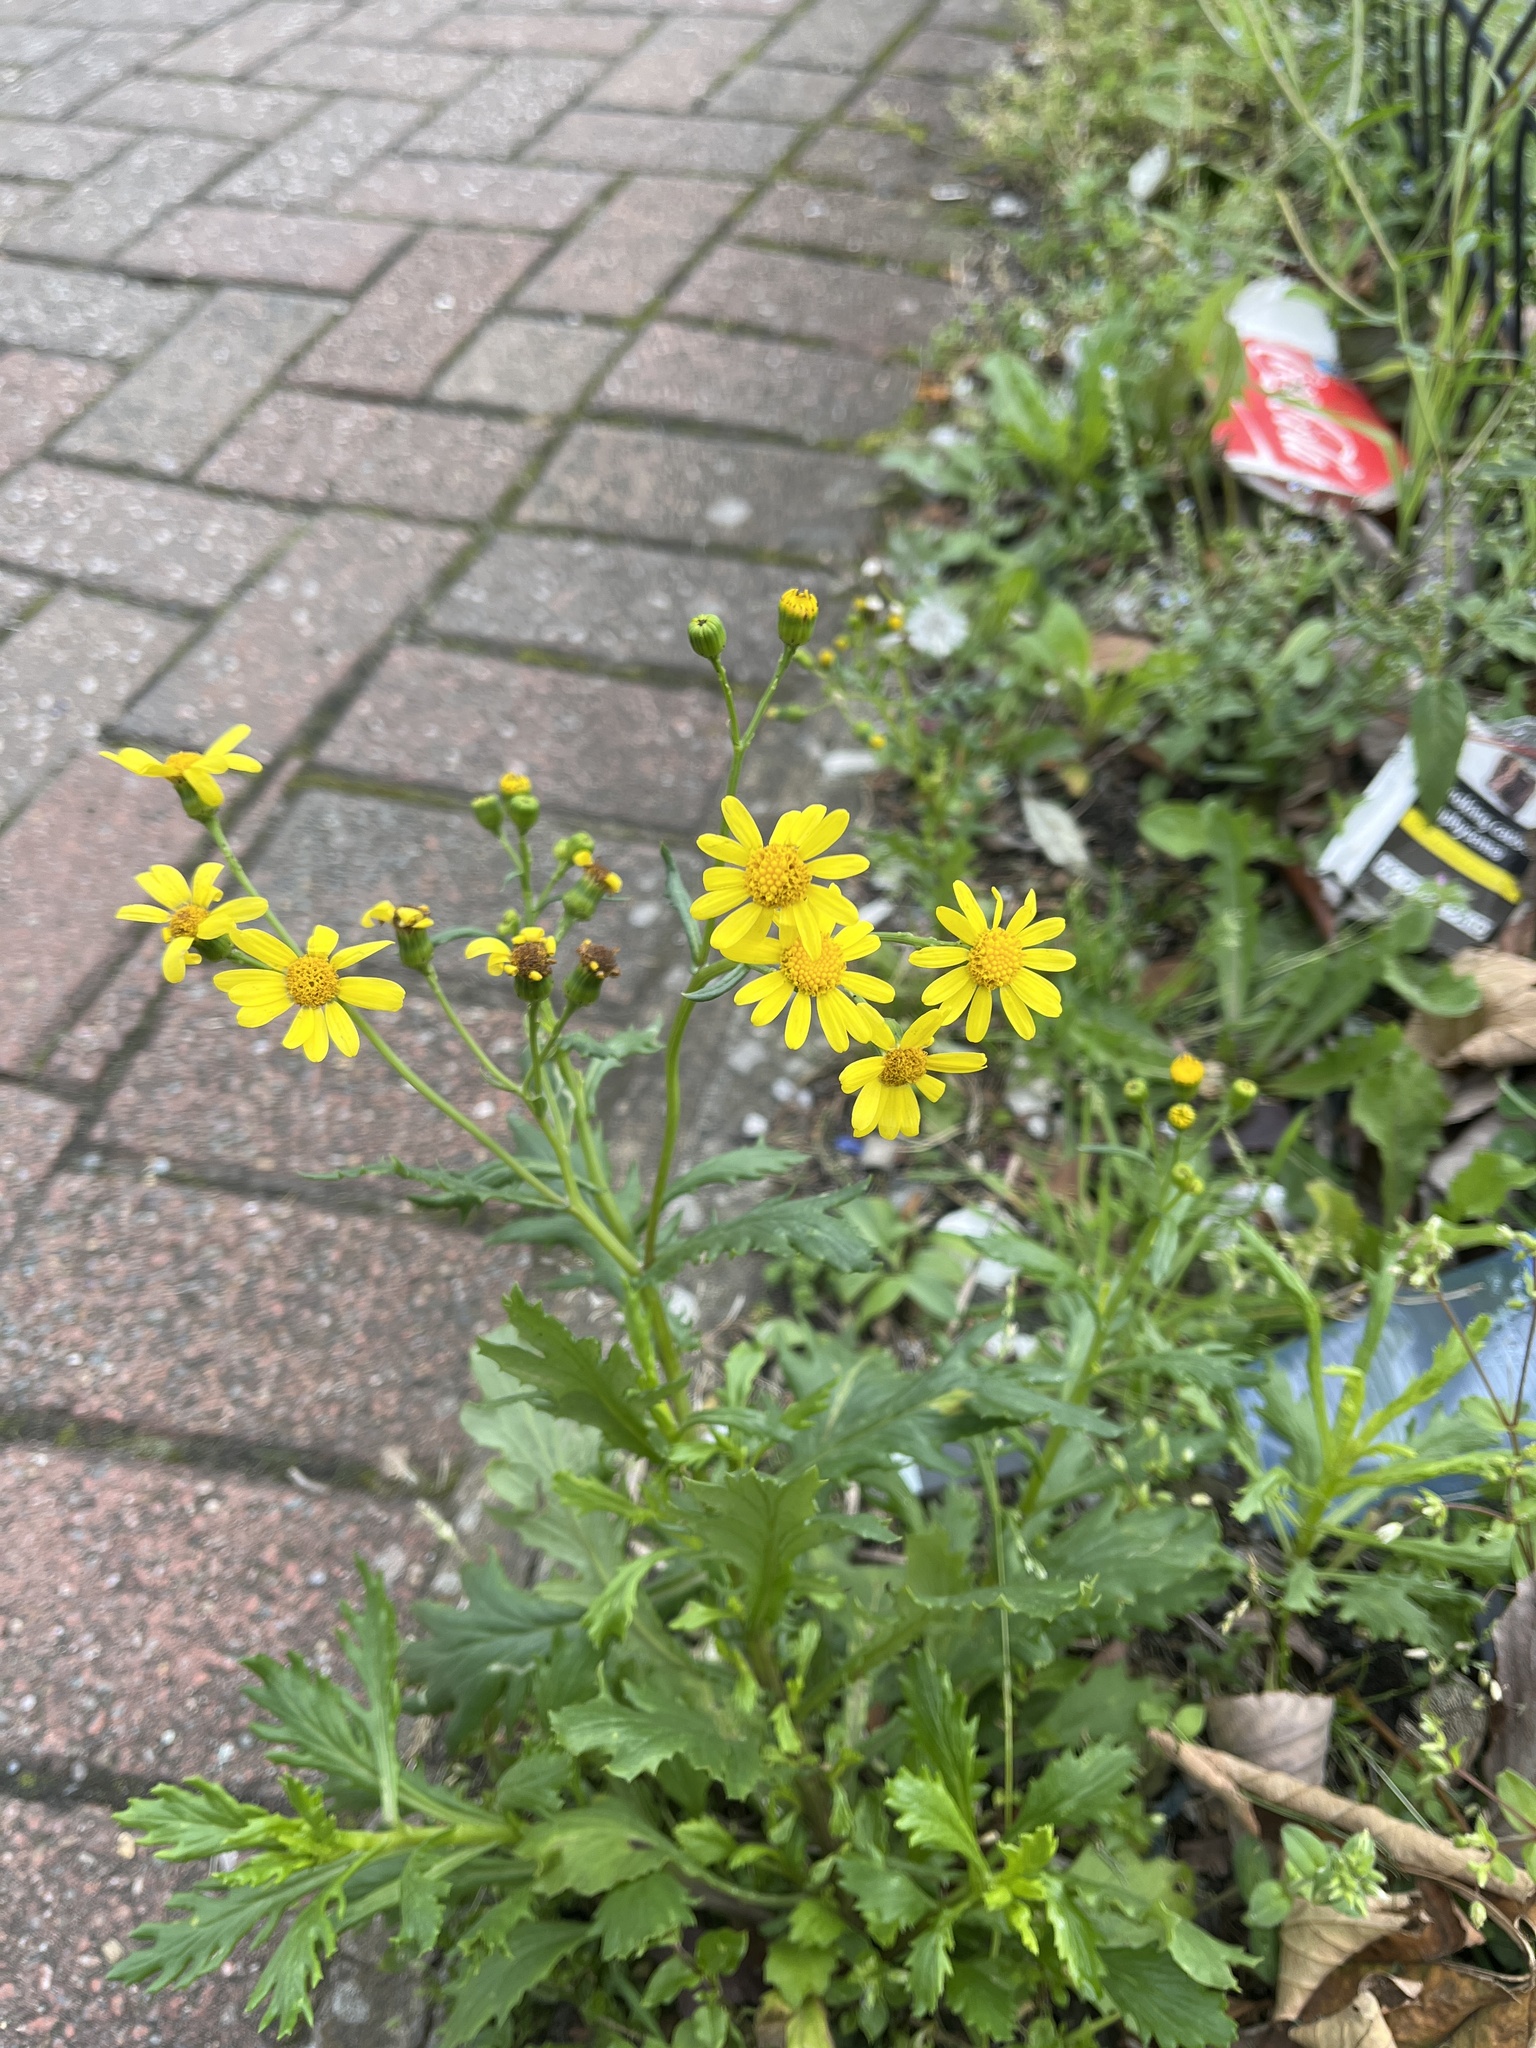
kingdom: Plantae
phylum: Tracheophyta
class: Magnoliopsida
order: Asterales
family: Asteraceae
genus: Senecio
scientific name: Senecio squalidus
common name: Oxford ragwort
